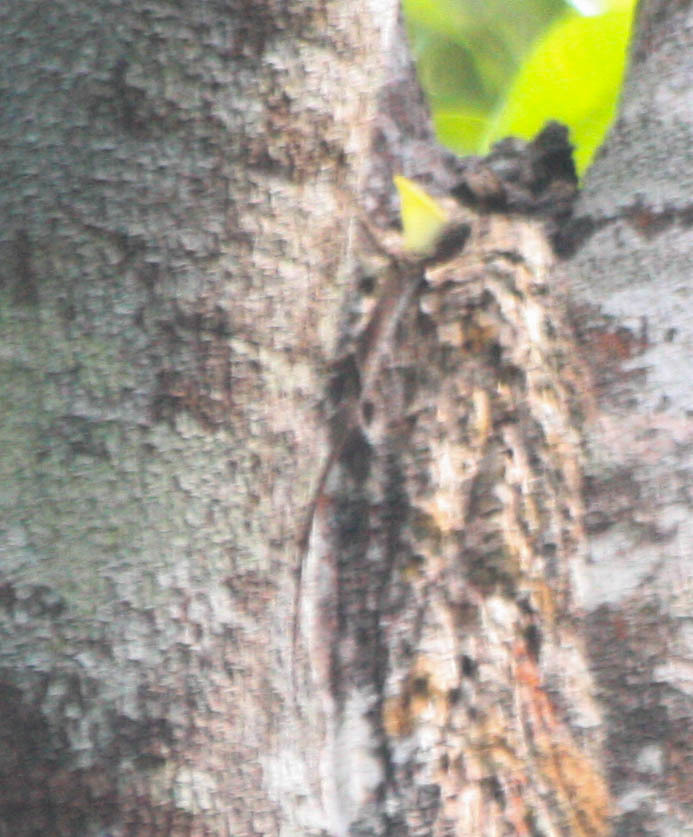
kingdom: Animalia
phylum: Chordata
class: Squamata
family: Agamidae
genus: Draco
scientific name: Draco sumatranus
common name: Common gliding lizard
